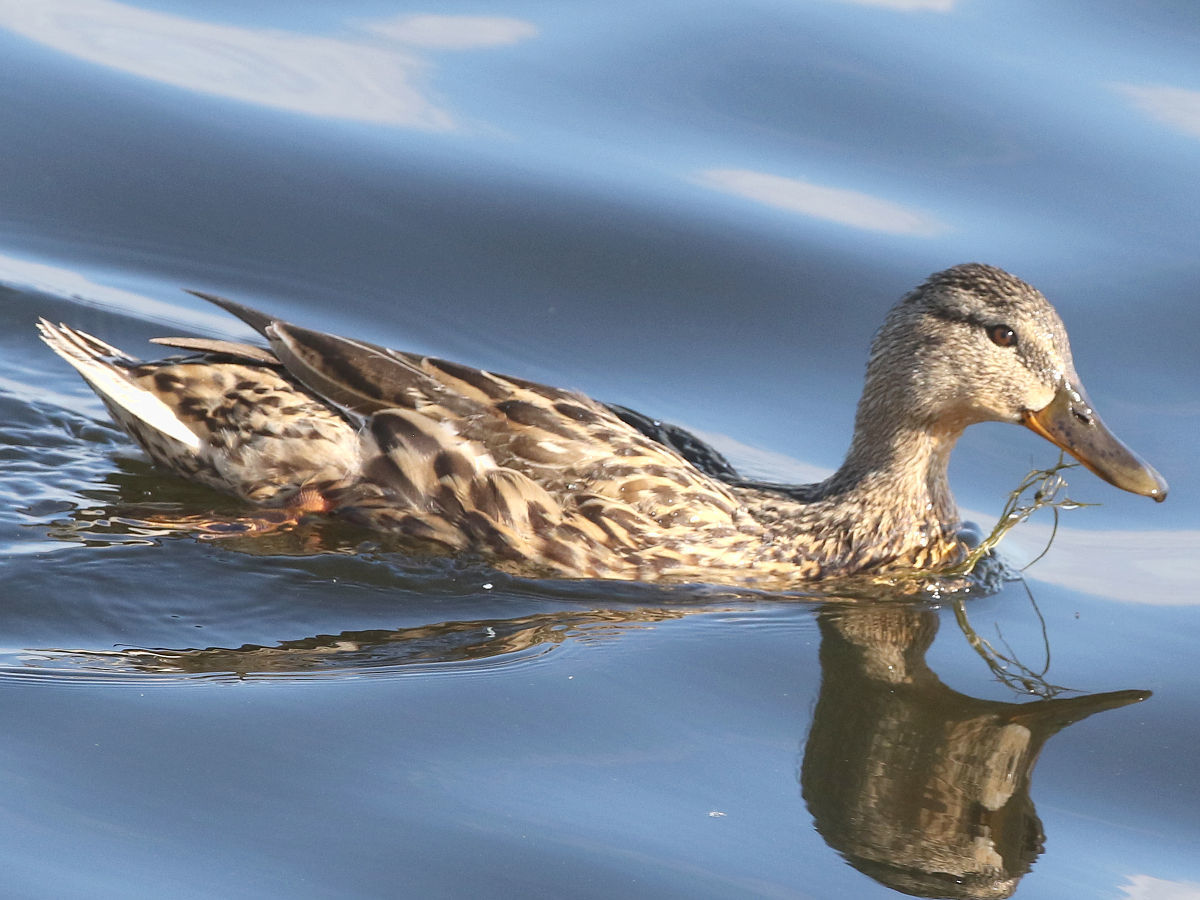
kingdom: Animalia
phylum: Chordata
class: Aves
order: Anseriformes
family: Anatidae
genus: Anas
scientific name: Anas platyrhynchos
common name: Mallard
